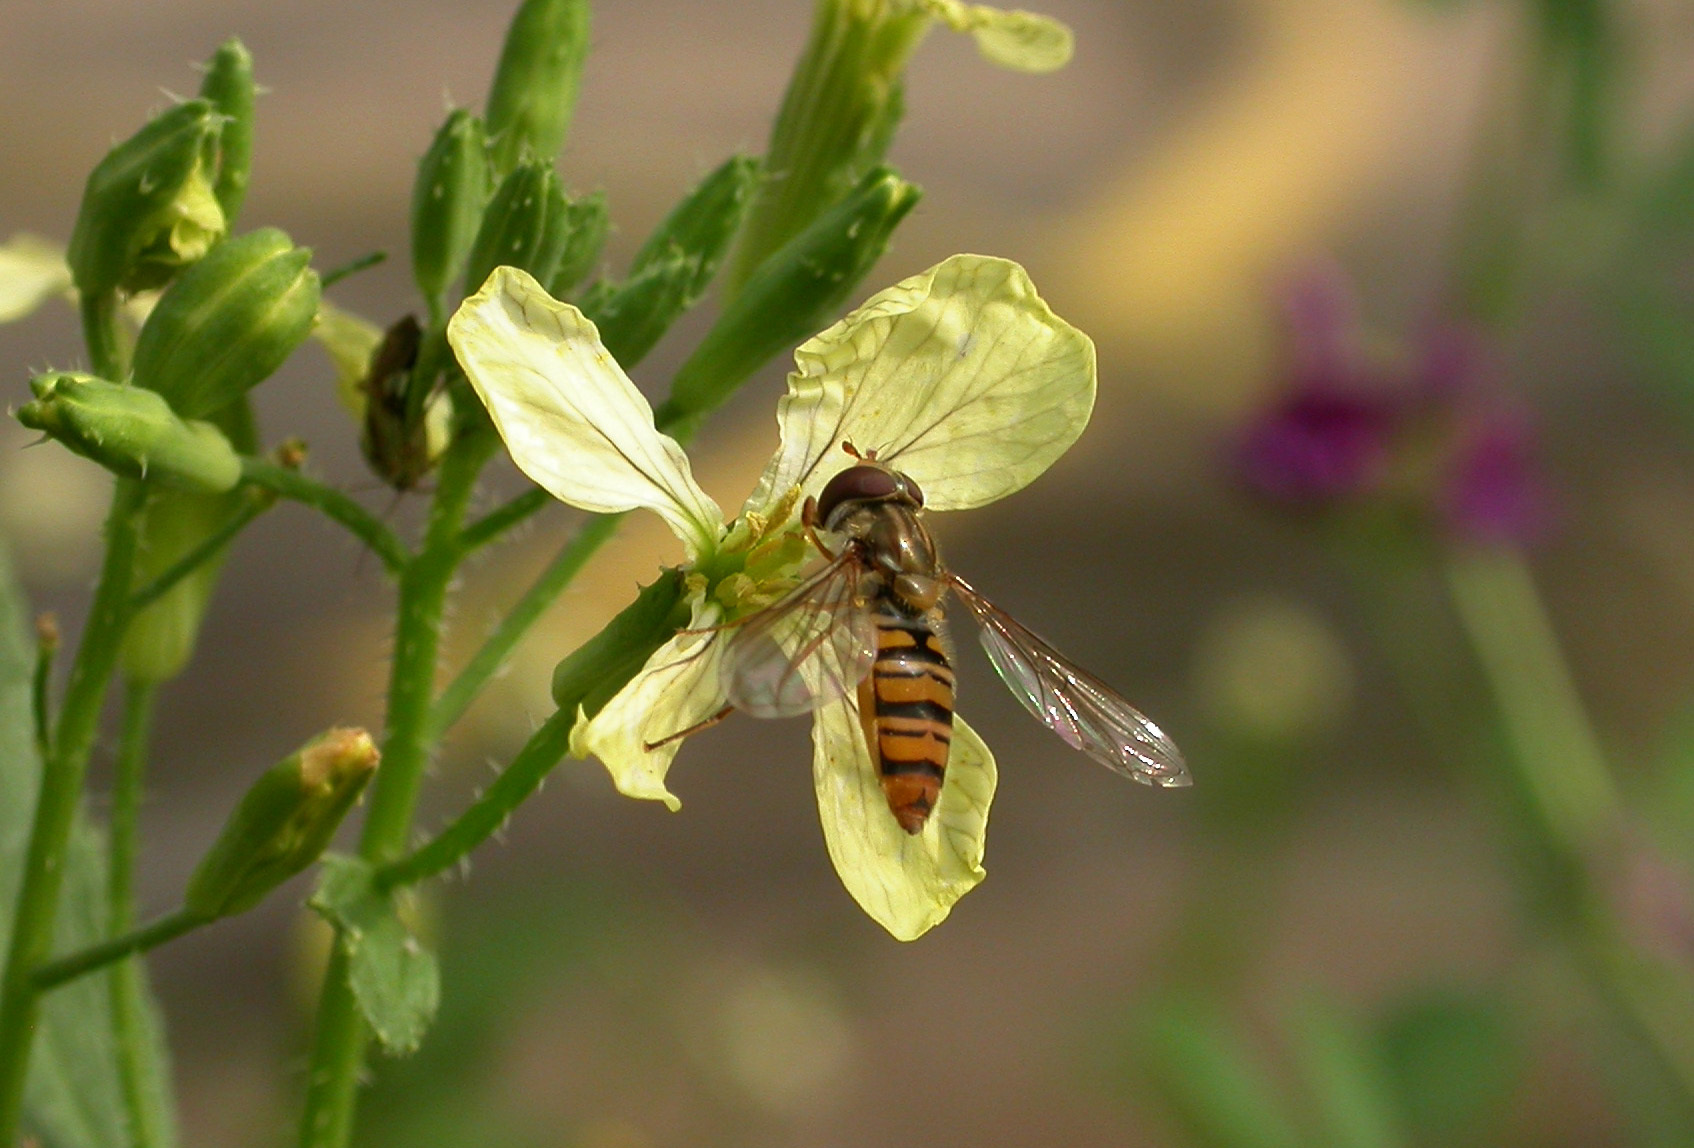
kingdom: Animalia
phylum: Arthropoda
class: Insecta
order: Diptera
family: Syrphidae
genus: Episyrphus
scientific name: Episyrphus balteatus
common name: Marmalade hoverfly
